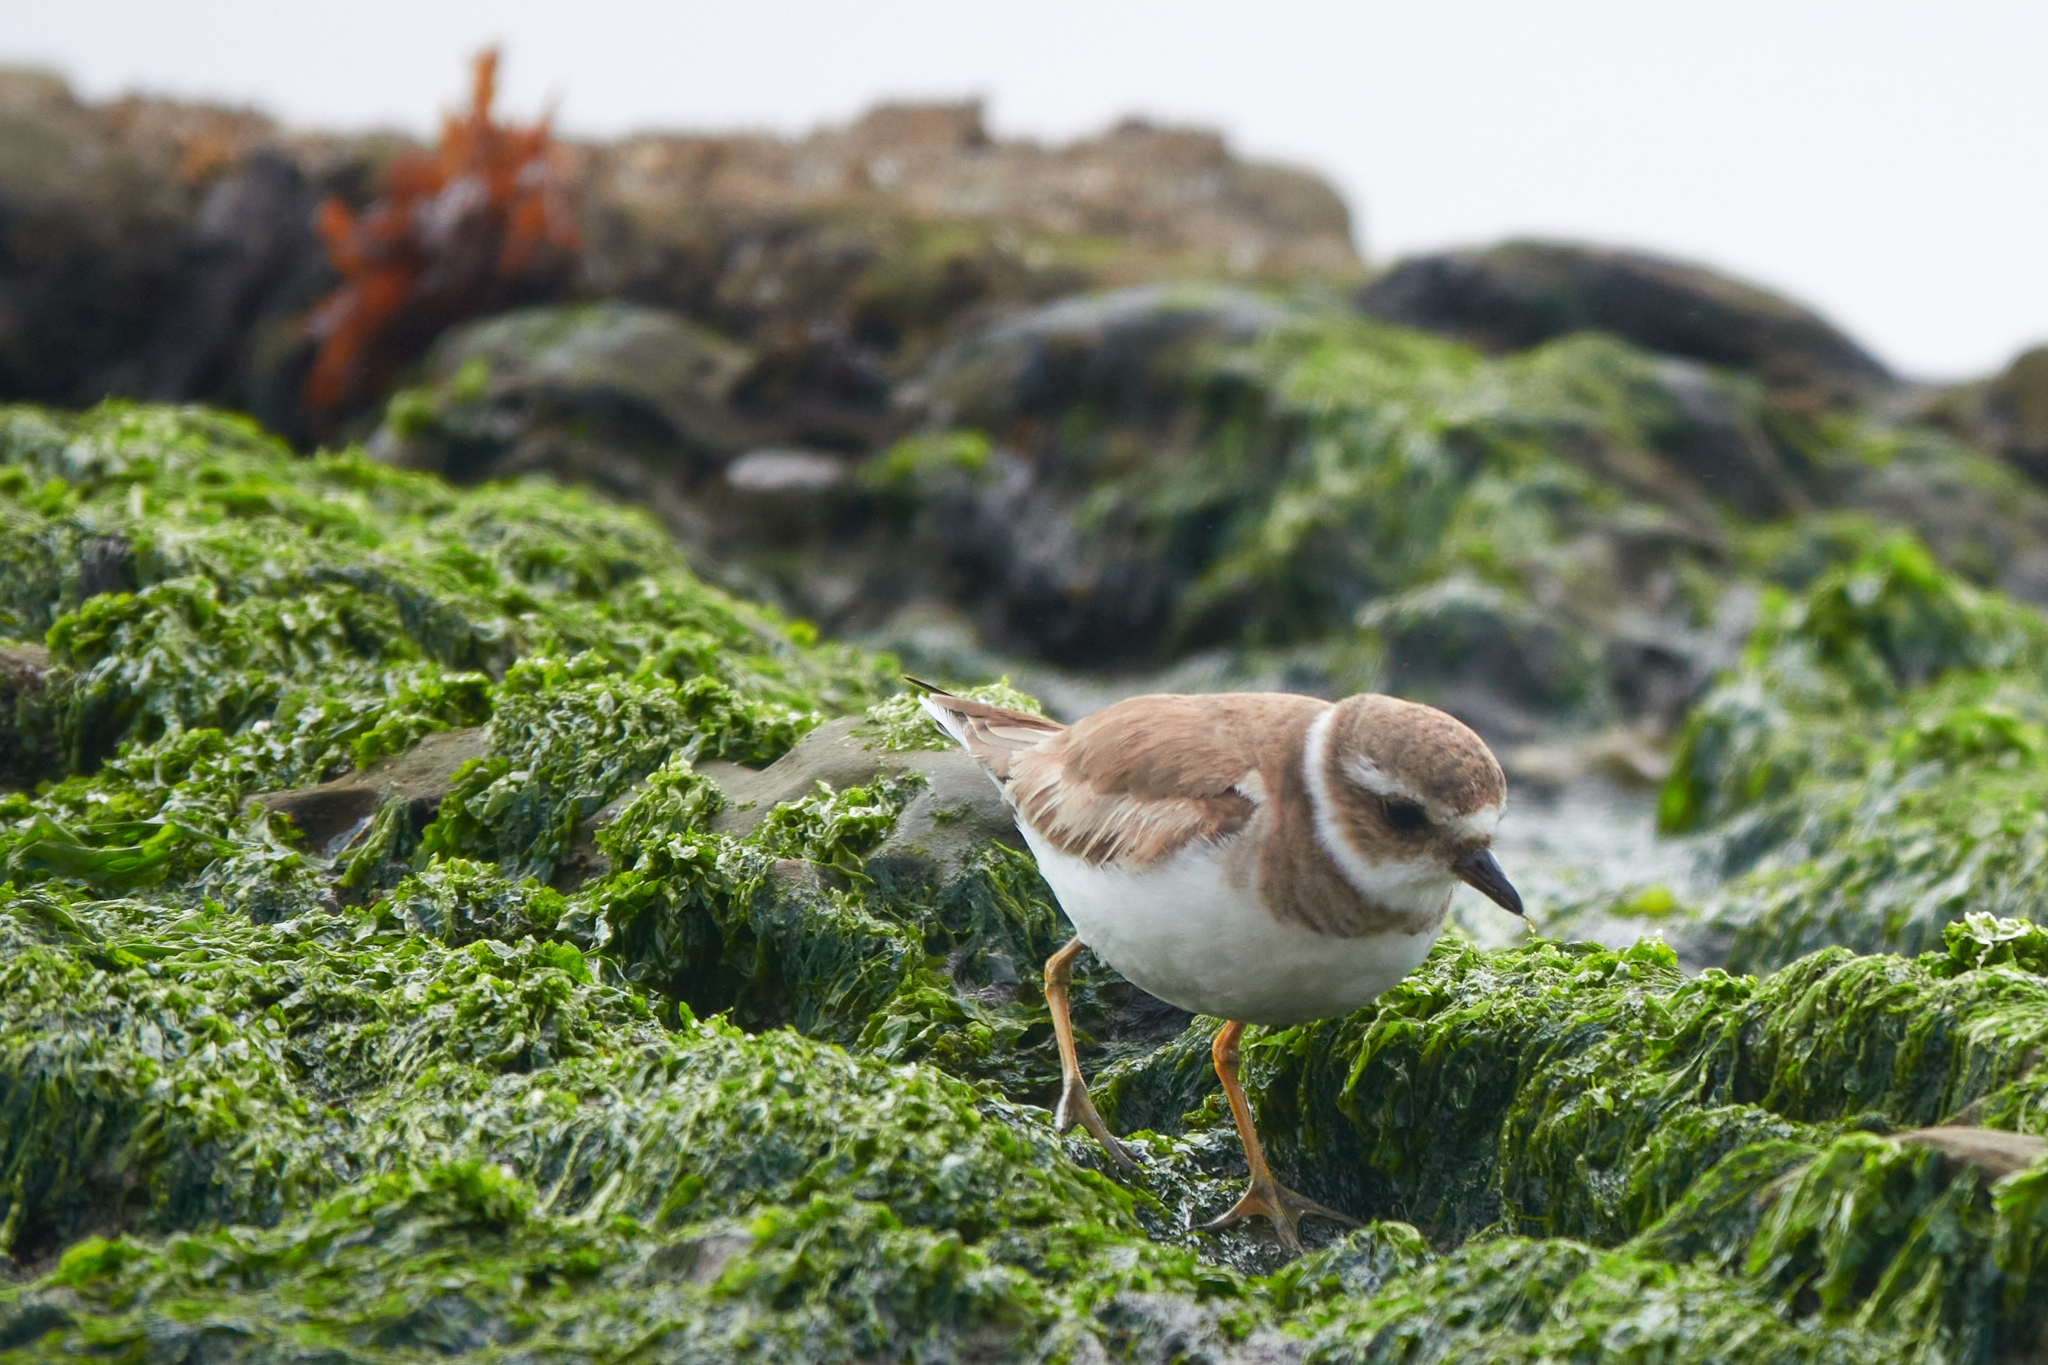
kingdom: Animalia
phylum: Chordata
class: Aves
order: Charadriiformes
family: Charadriidae
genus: Charadrius
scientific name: Charadrius semipalmatus
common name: Semipalmated plover
